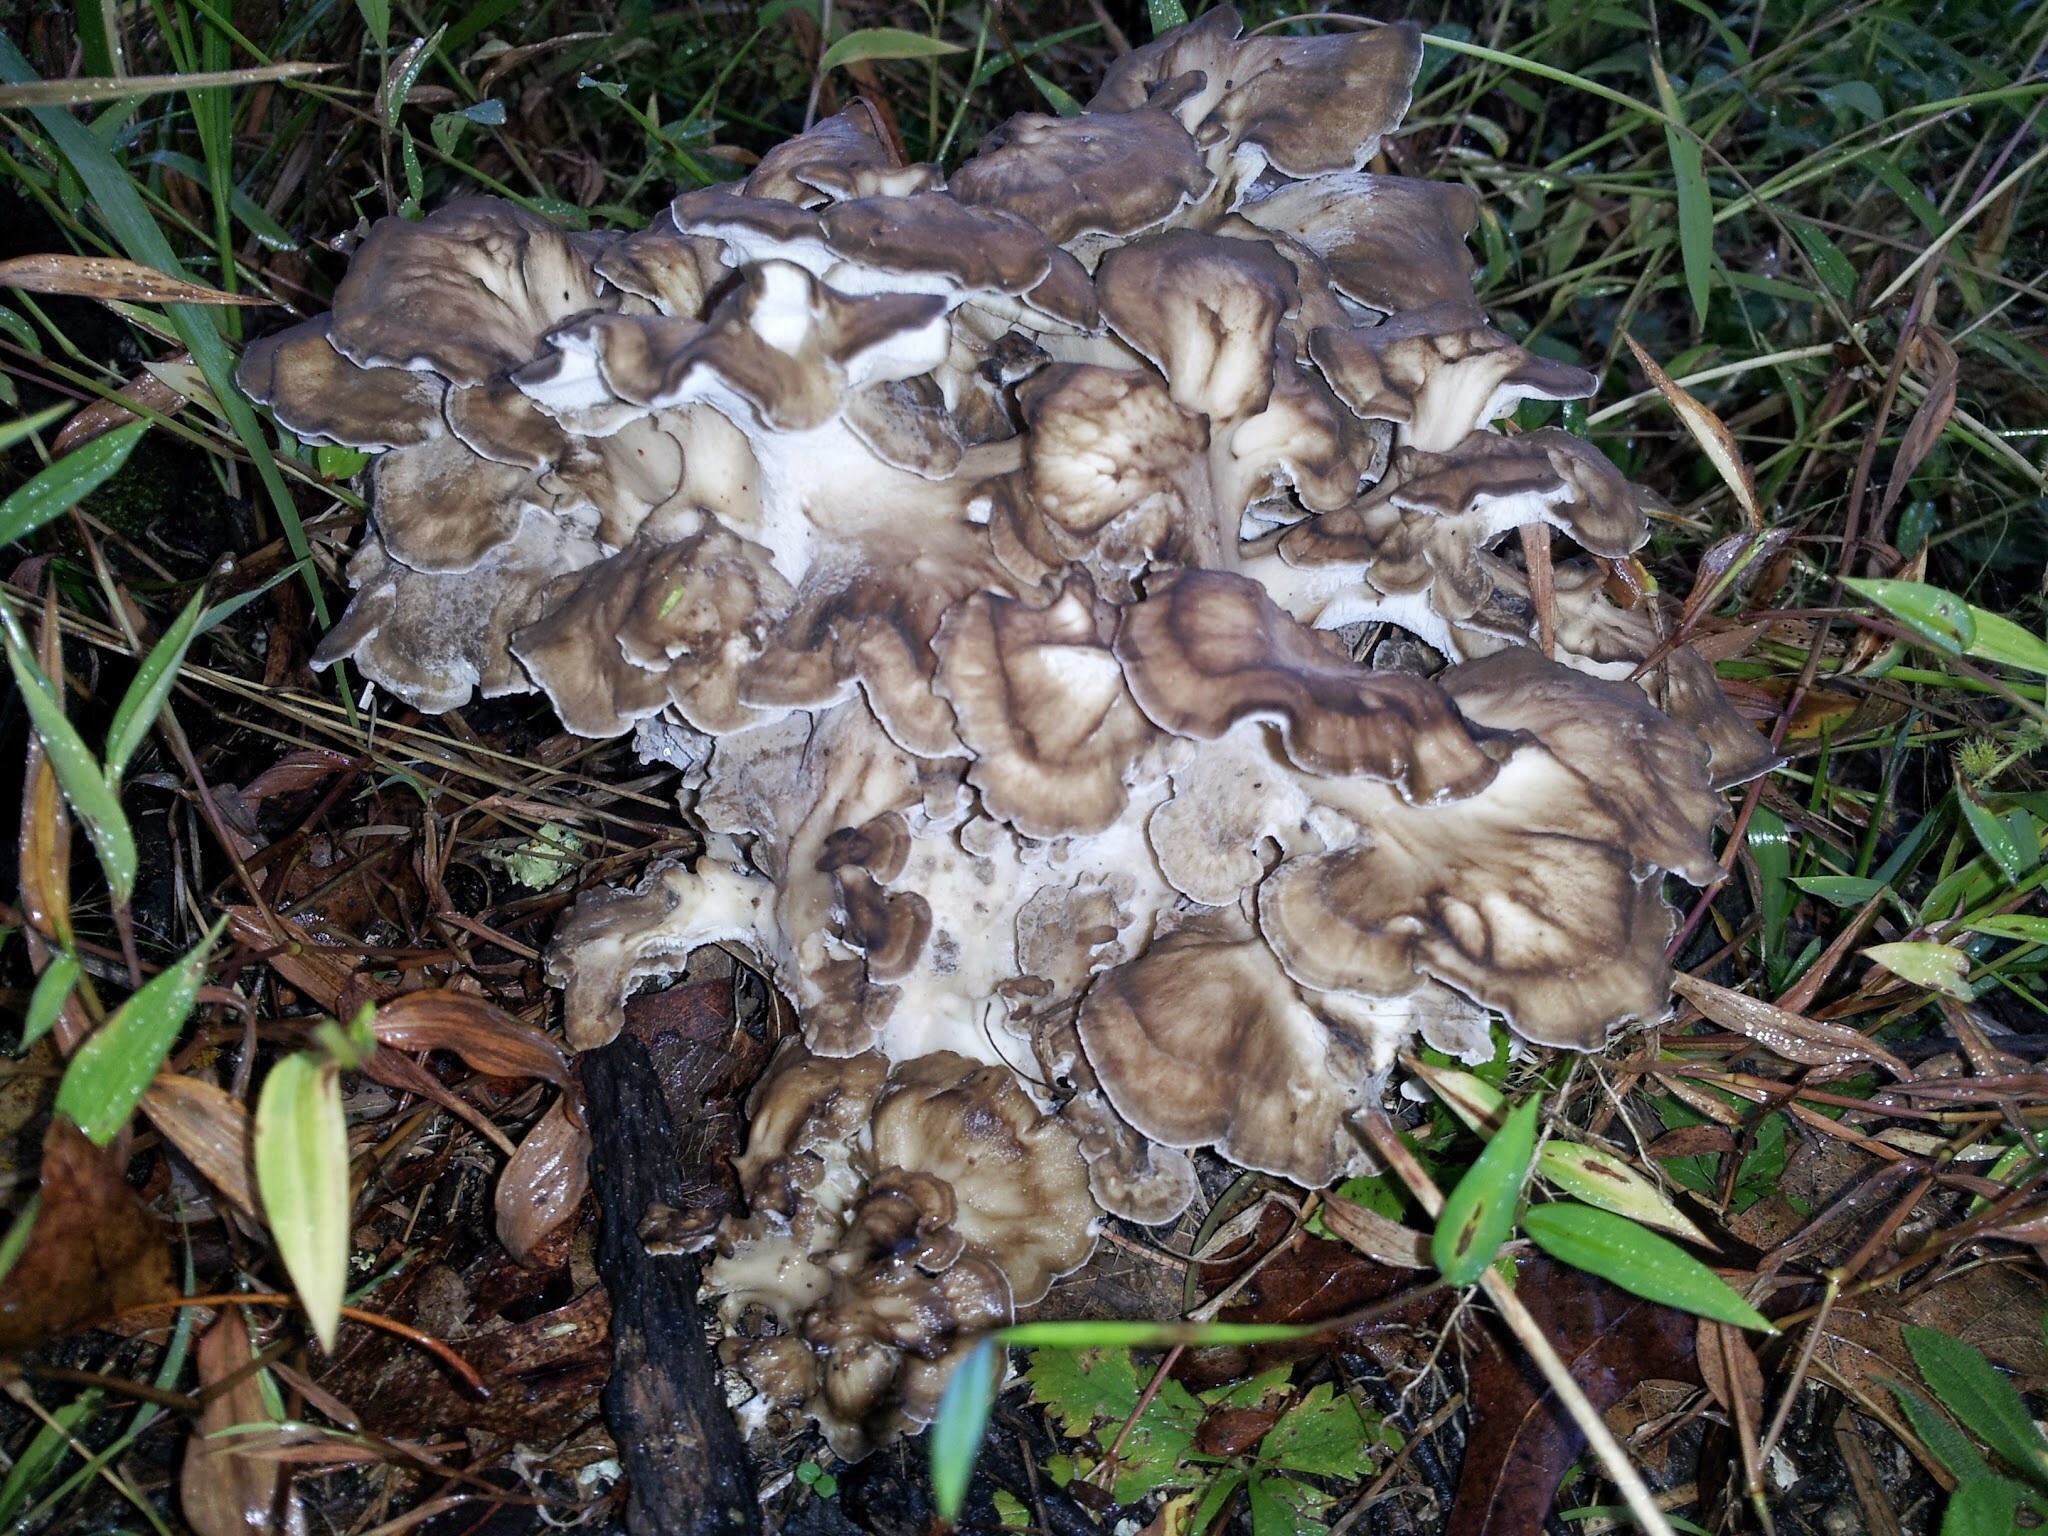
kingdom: Fungi
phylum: Basidiomycota
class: Agaricomycetes
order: Polyporales
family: Grifolaceae
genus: Grifola
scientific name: Grifola frondosa
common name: Hen of the woods
